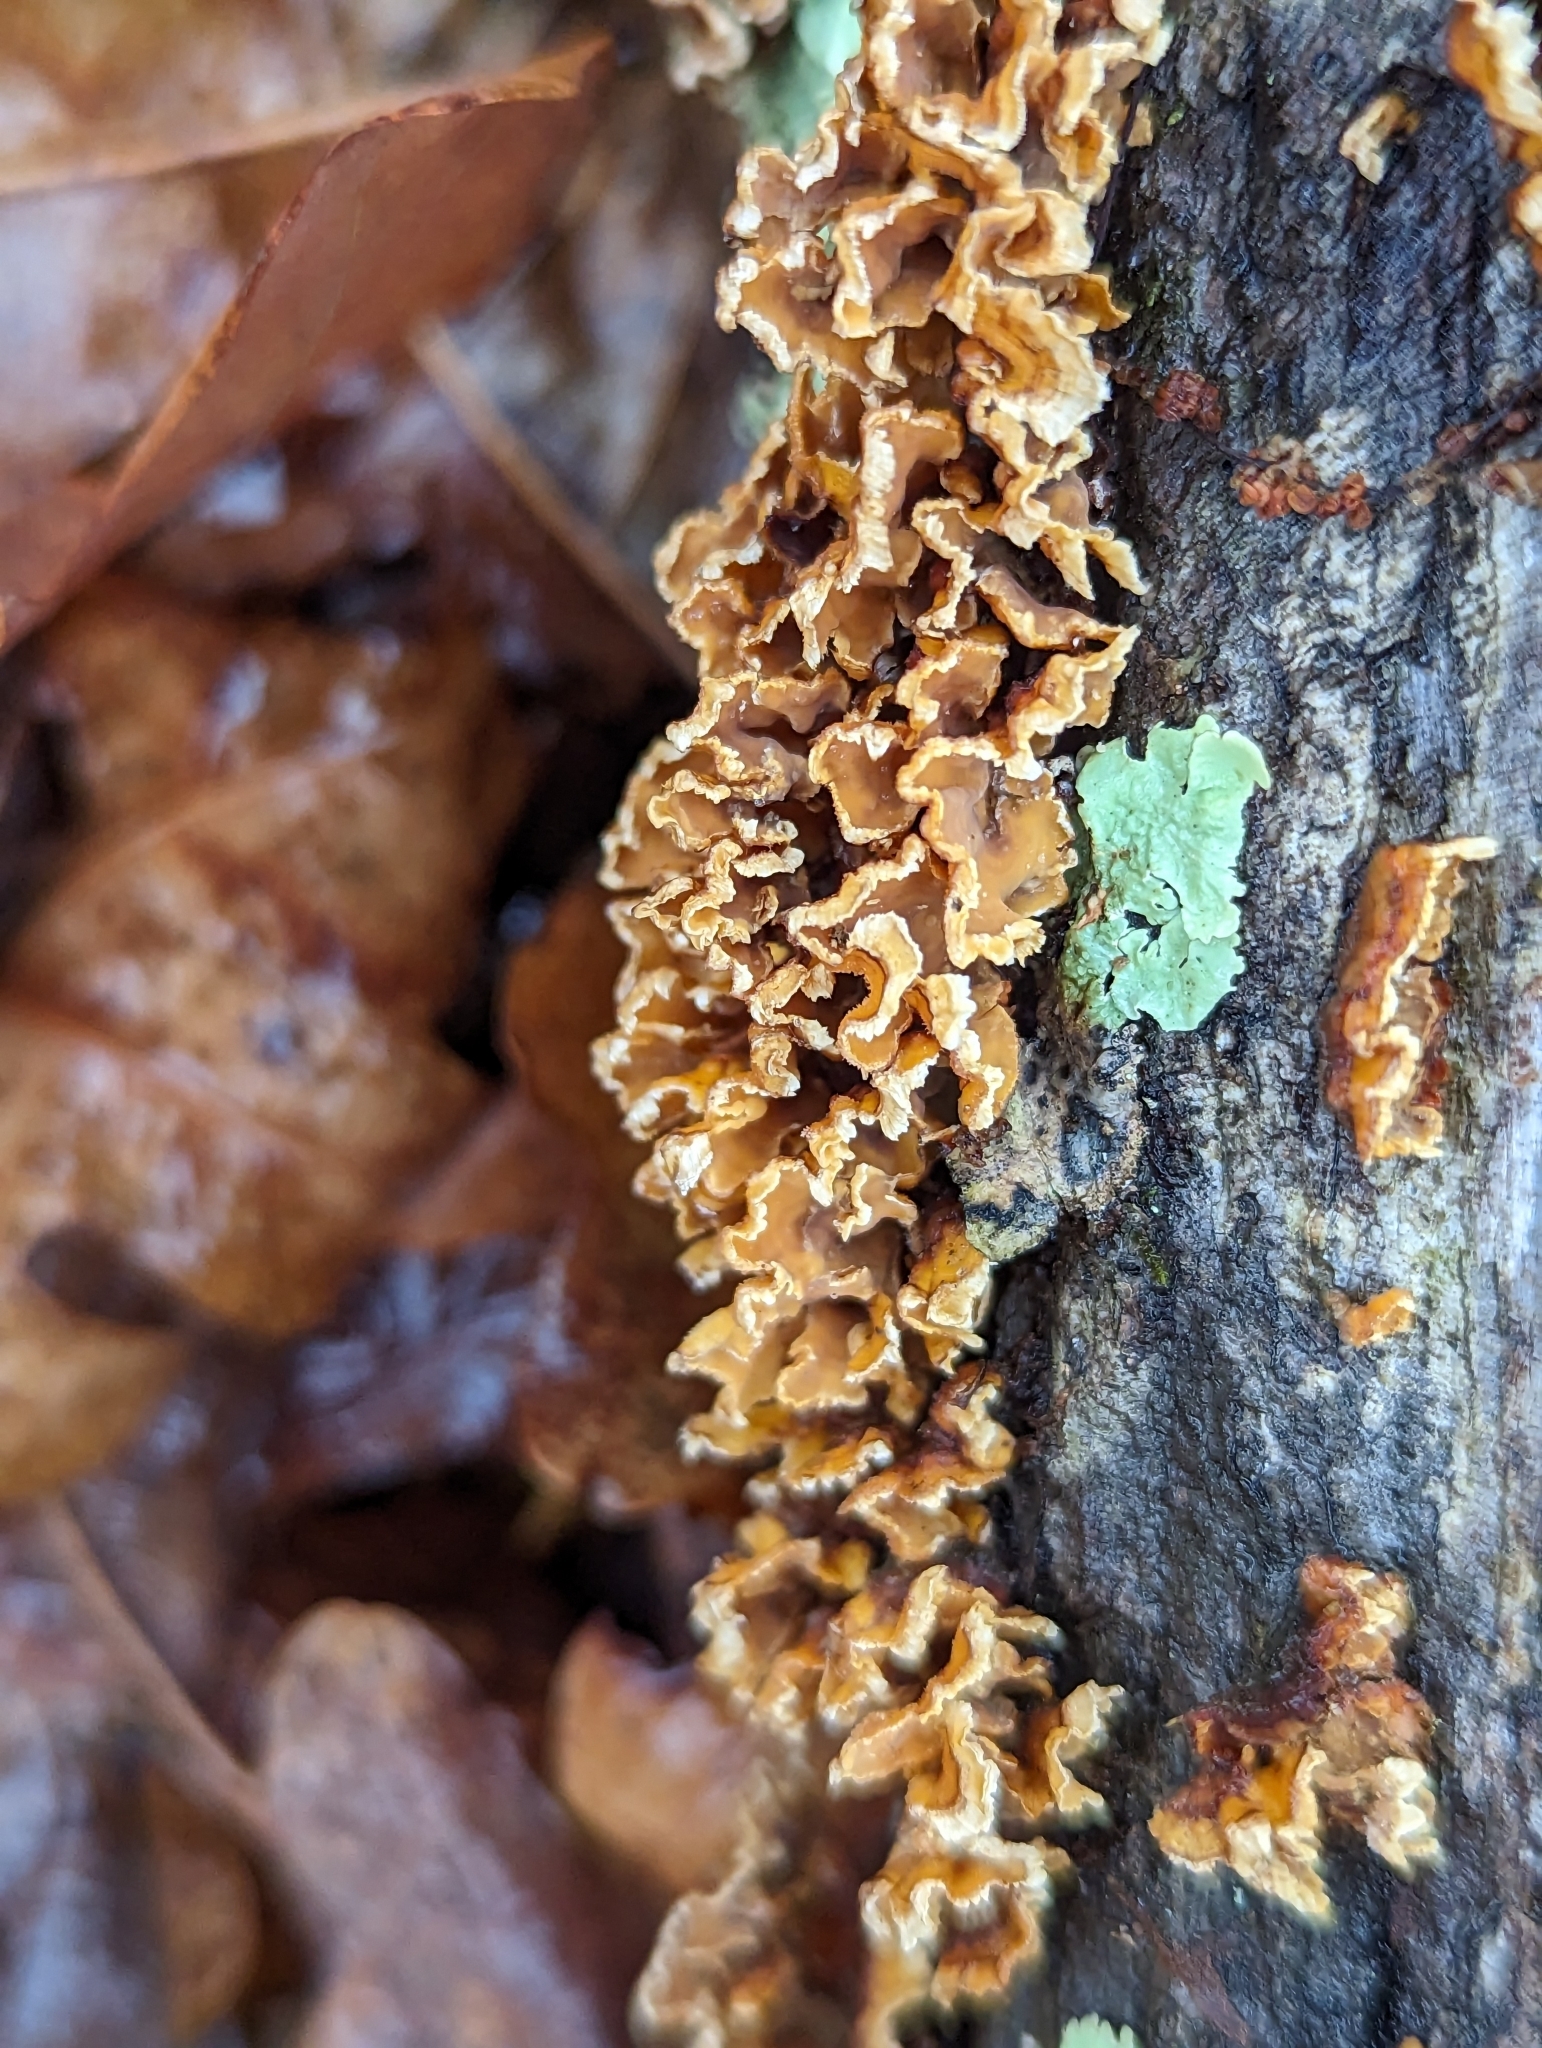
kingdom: Fungi
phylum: Basidiomycota
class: Agaricomycetes
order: Russulales
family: Stereaceae
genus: Stereum
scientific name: Stereum complicatum
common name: Crowded parchment
